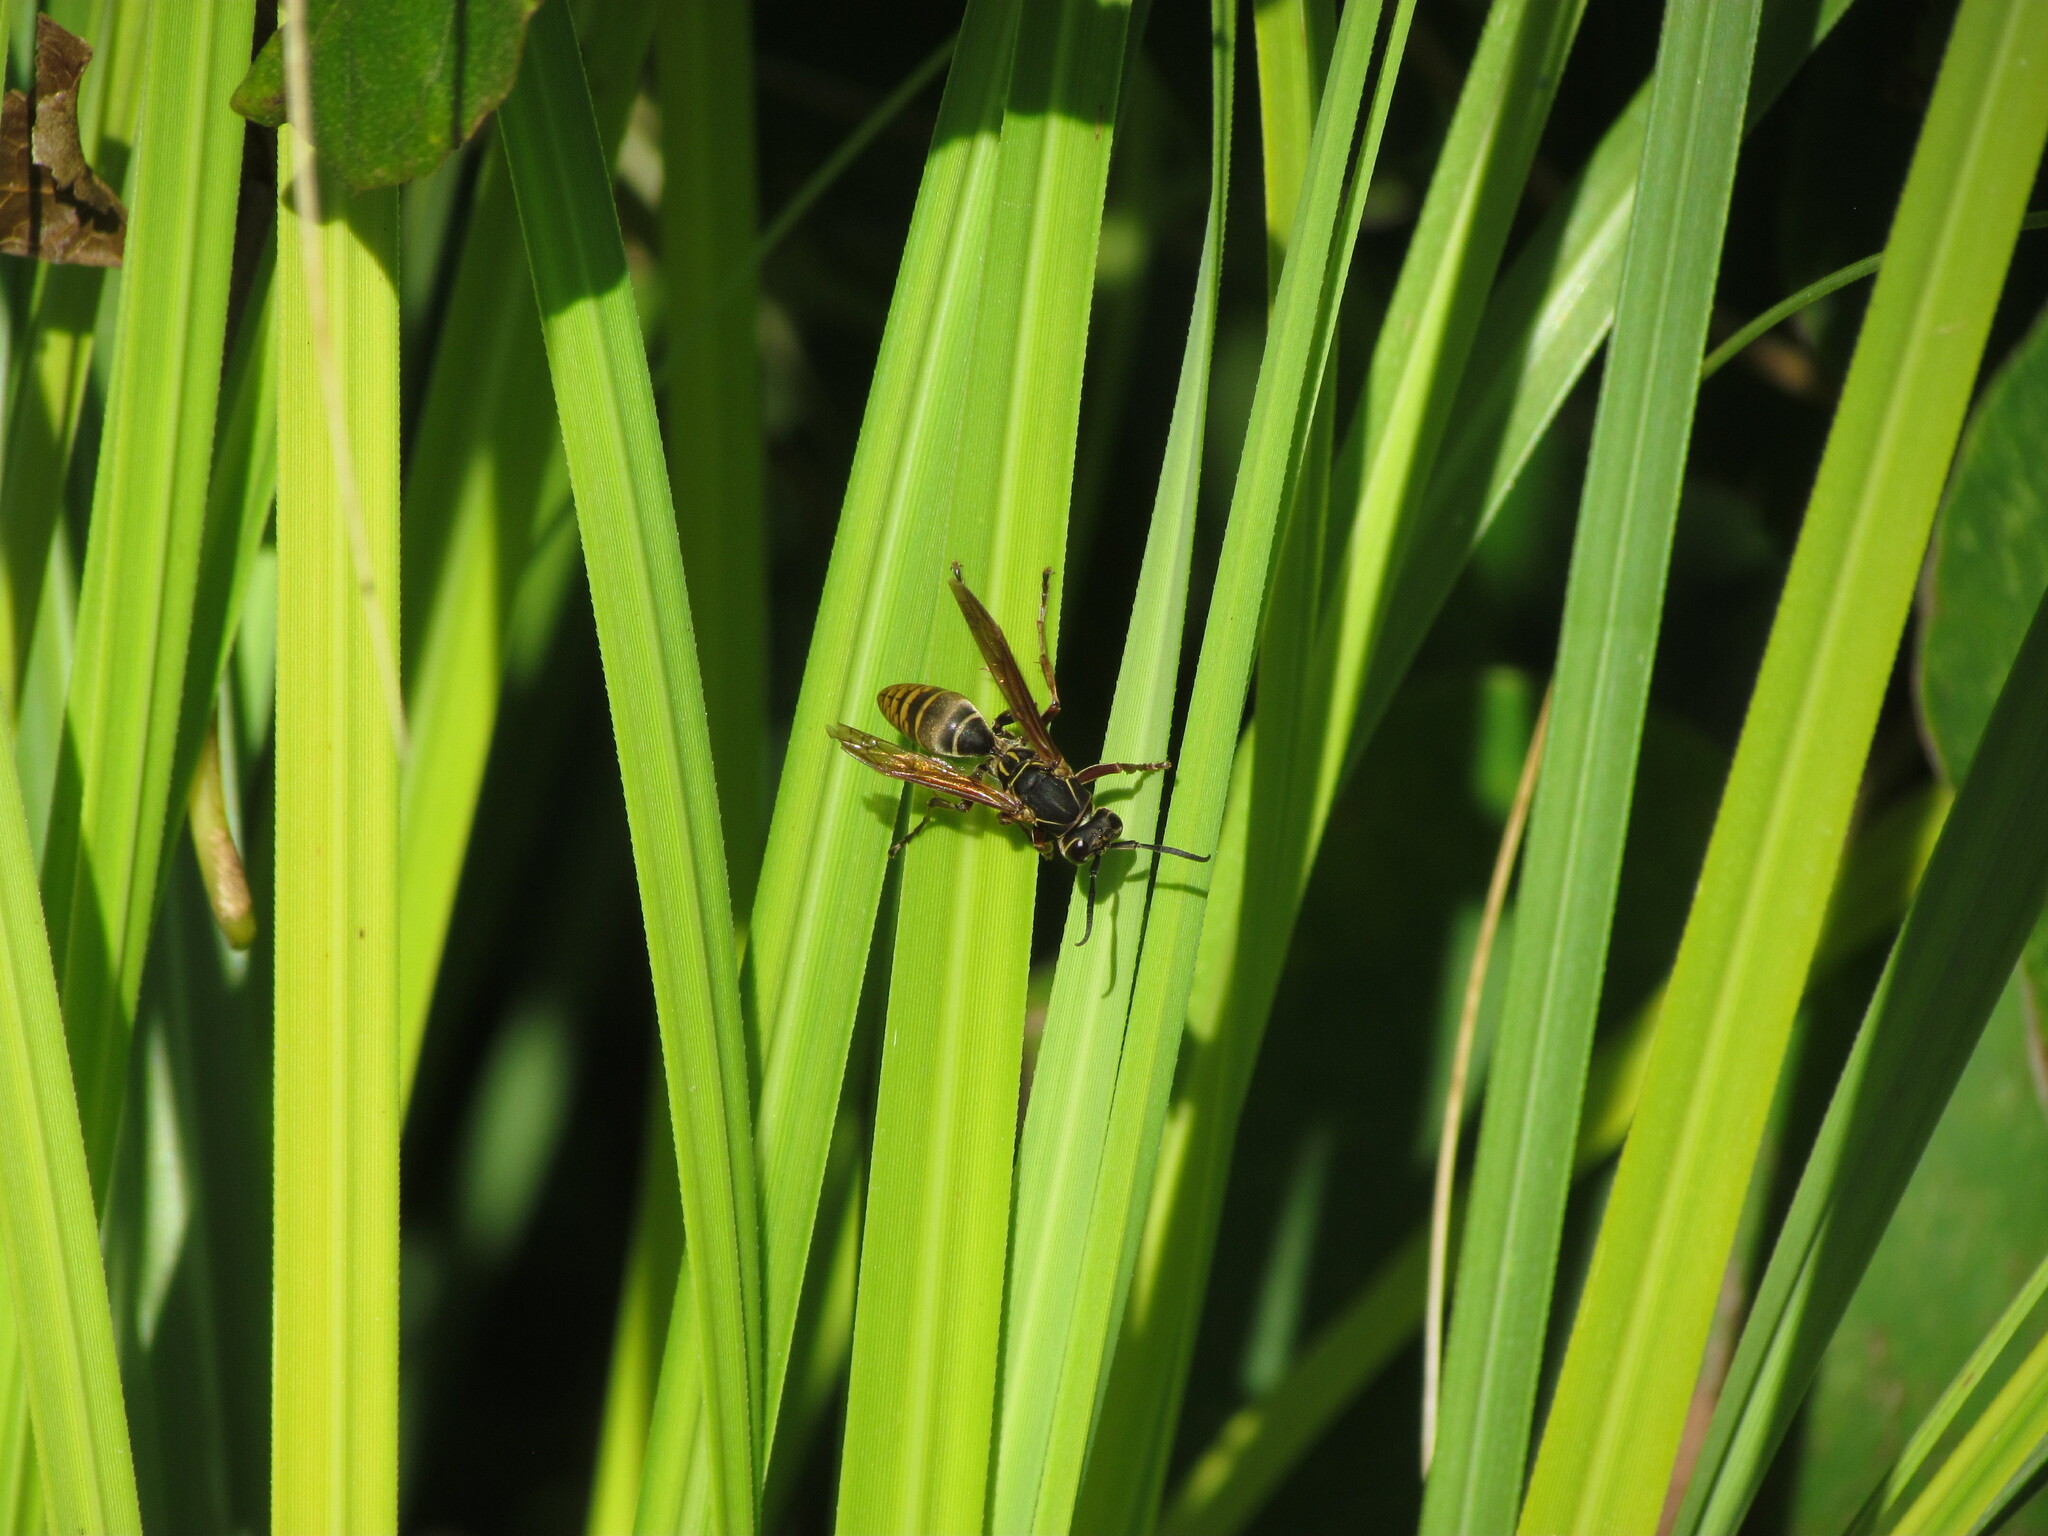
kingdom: Animalia
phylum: Arthropoda
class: Insecta
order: Hymenoptera
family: Eumenidae
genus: Polistes
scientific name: Polistes cinerascens
